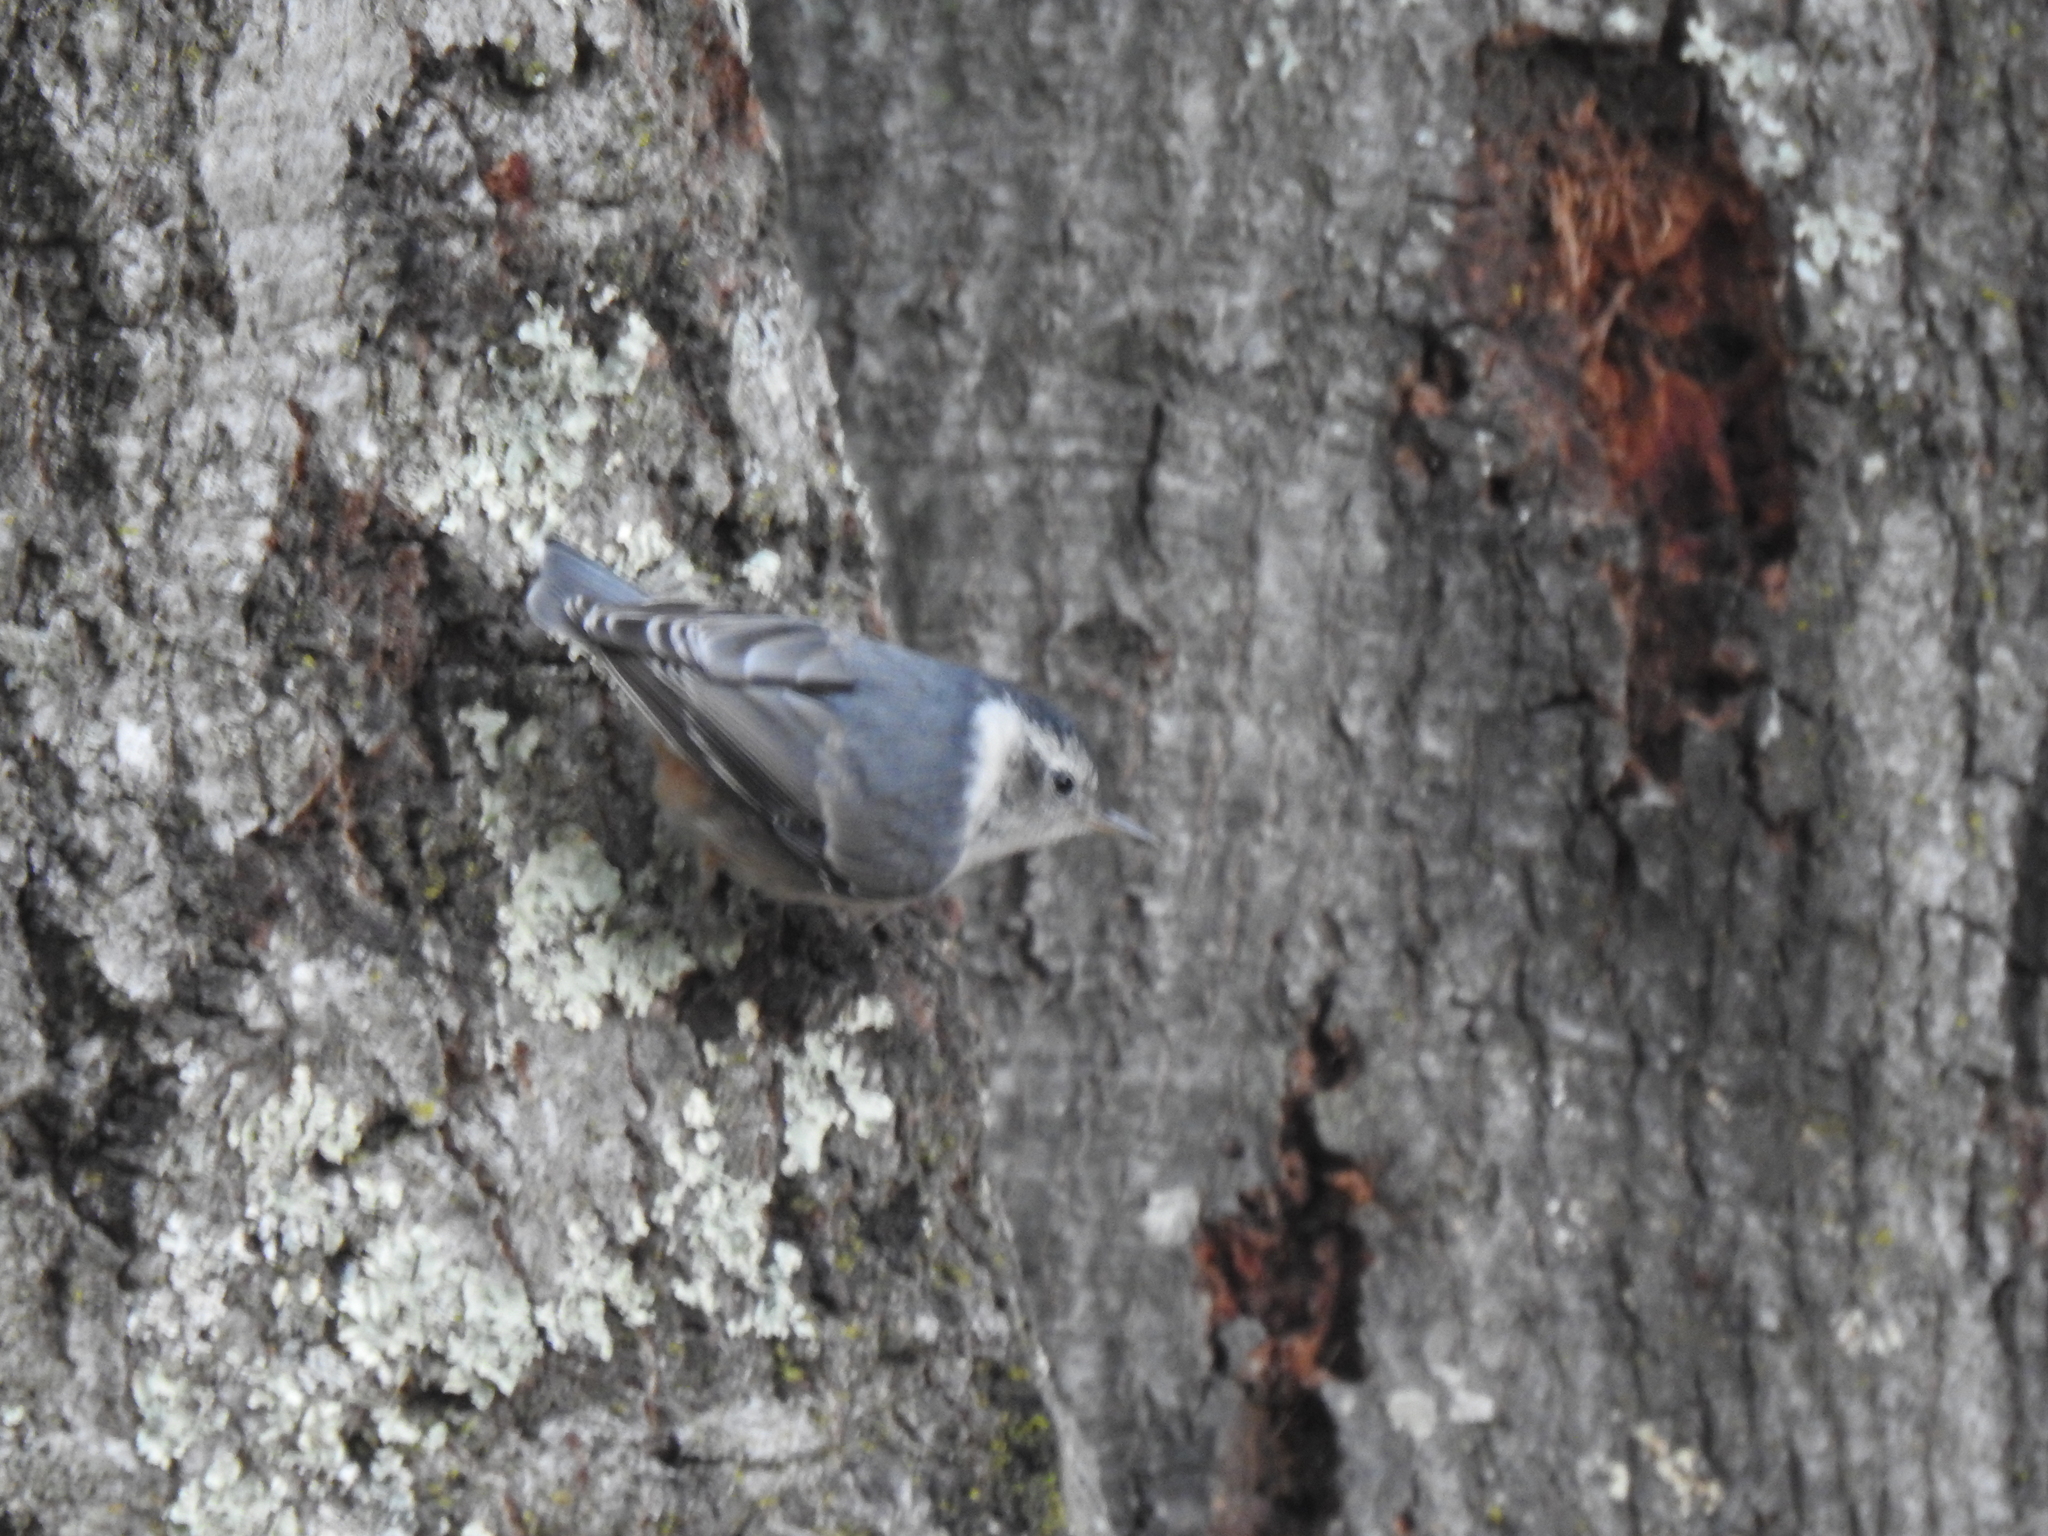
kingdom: Animalia
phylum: Chordata
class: Aves
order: Passeriformes
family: Sittidae
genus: Sitta
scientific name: Sitta carolinensis
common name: White-breasted nuthatch
